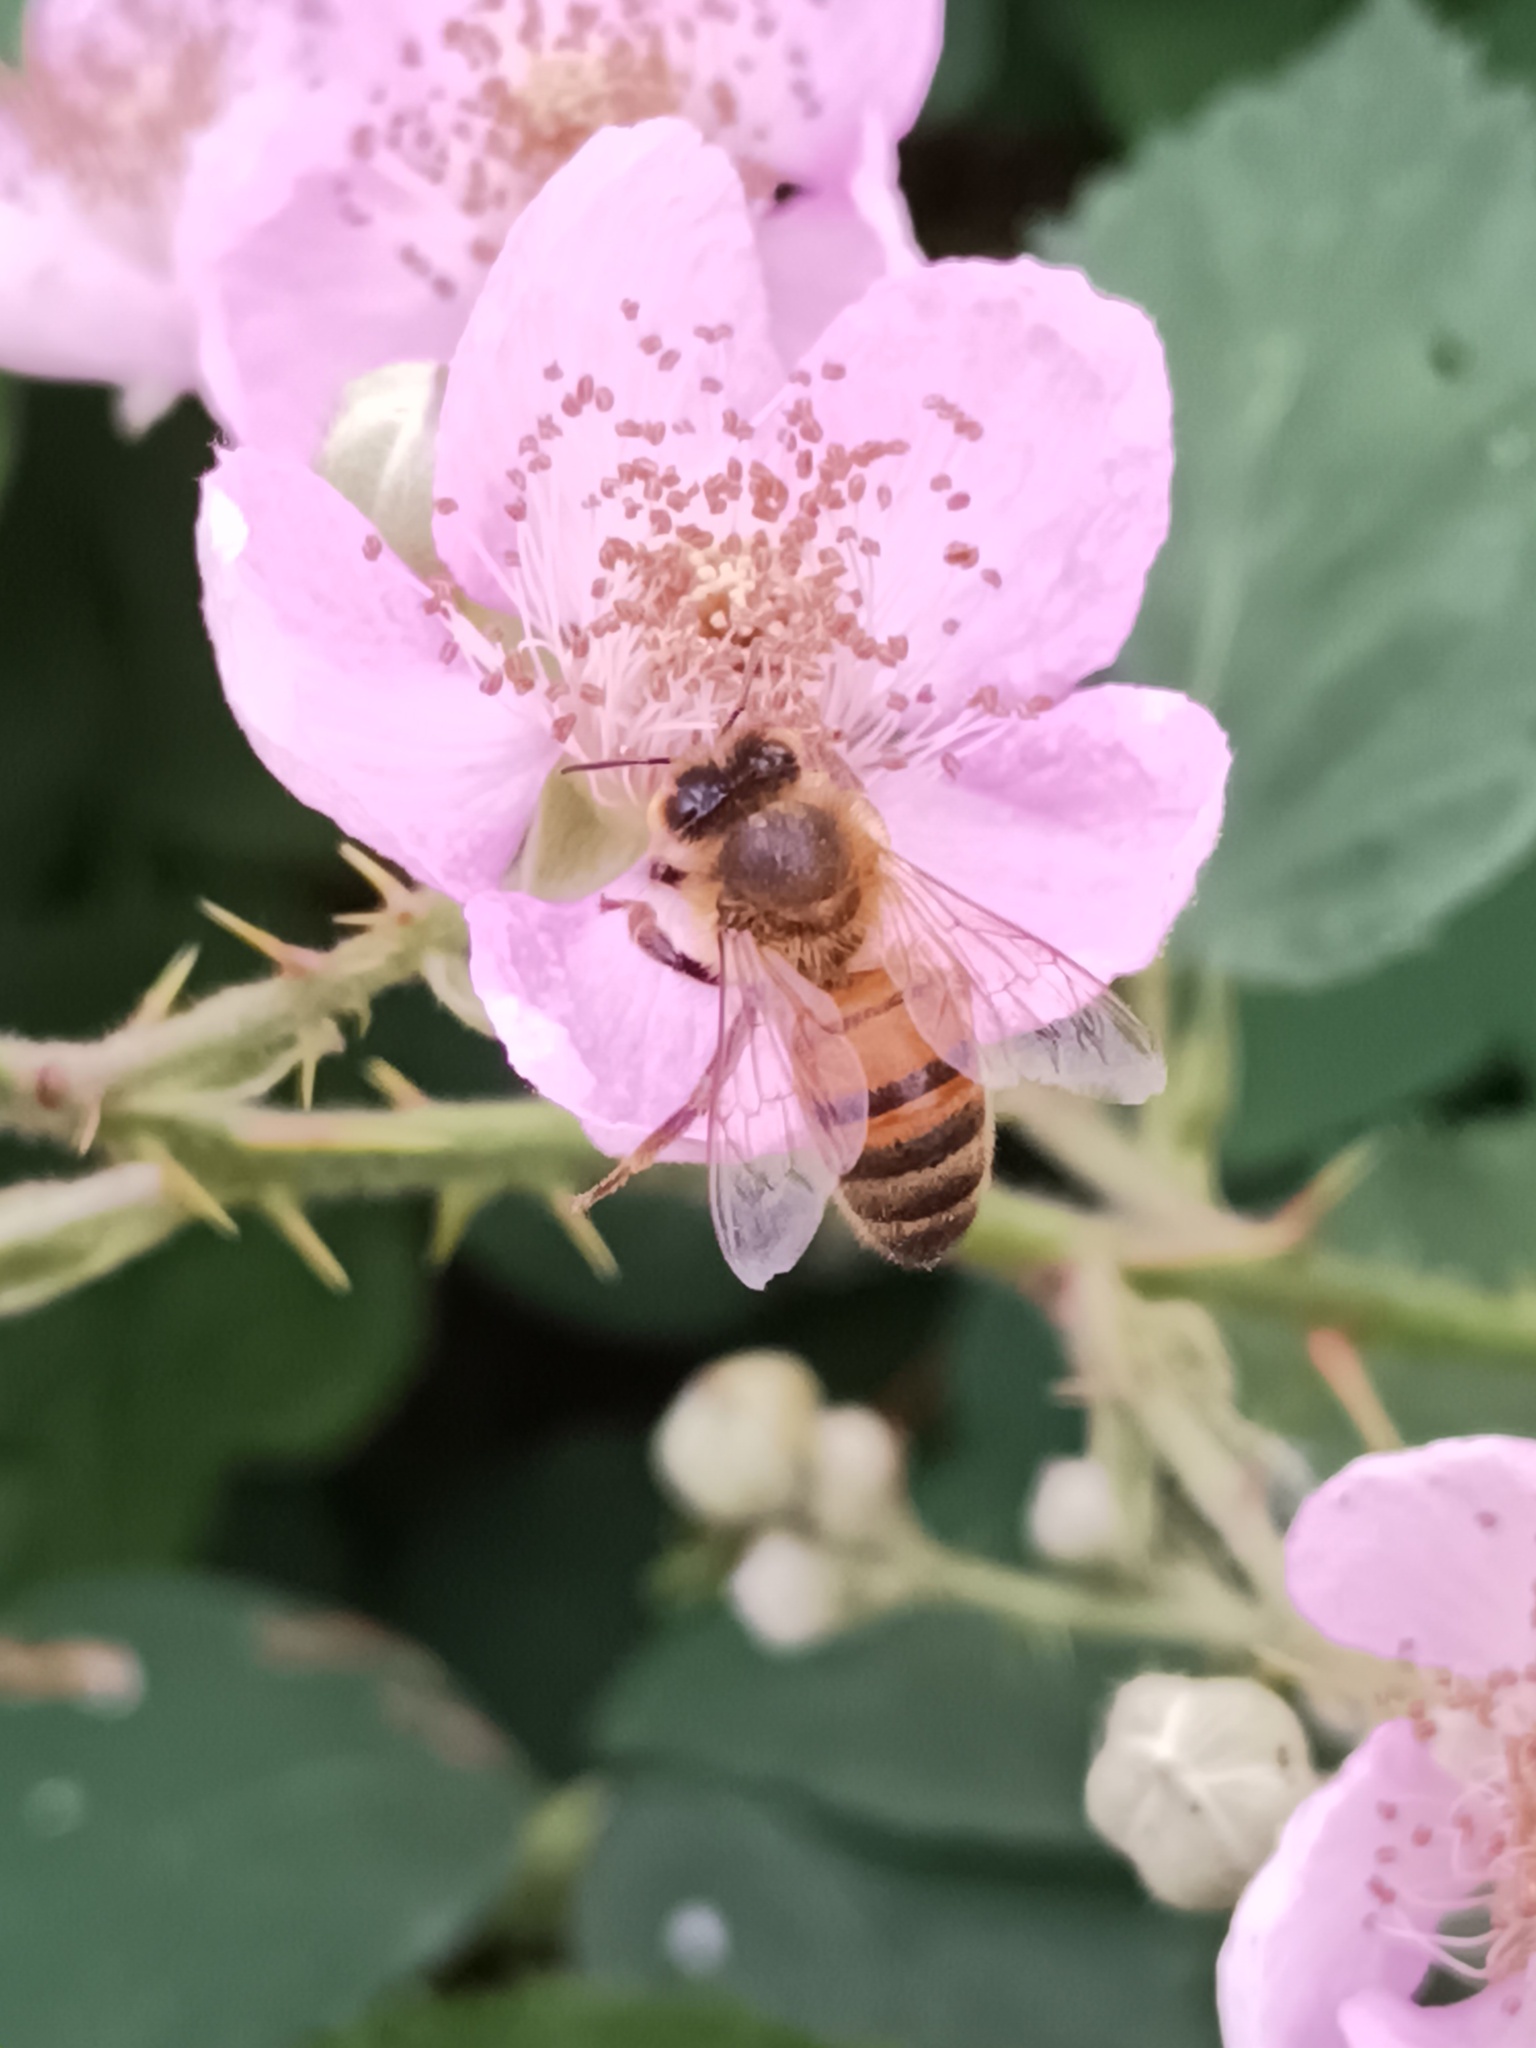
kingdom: Animalia
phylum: Arthropoda
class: Insecta
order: Hymenoptera
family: Apidae
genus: Apis
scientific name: Apis mellifera
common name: Honey bee
